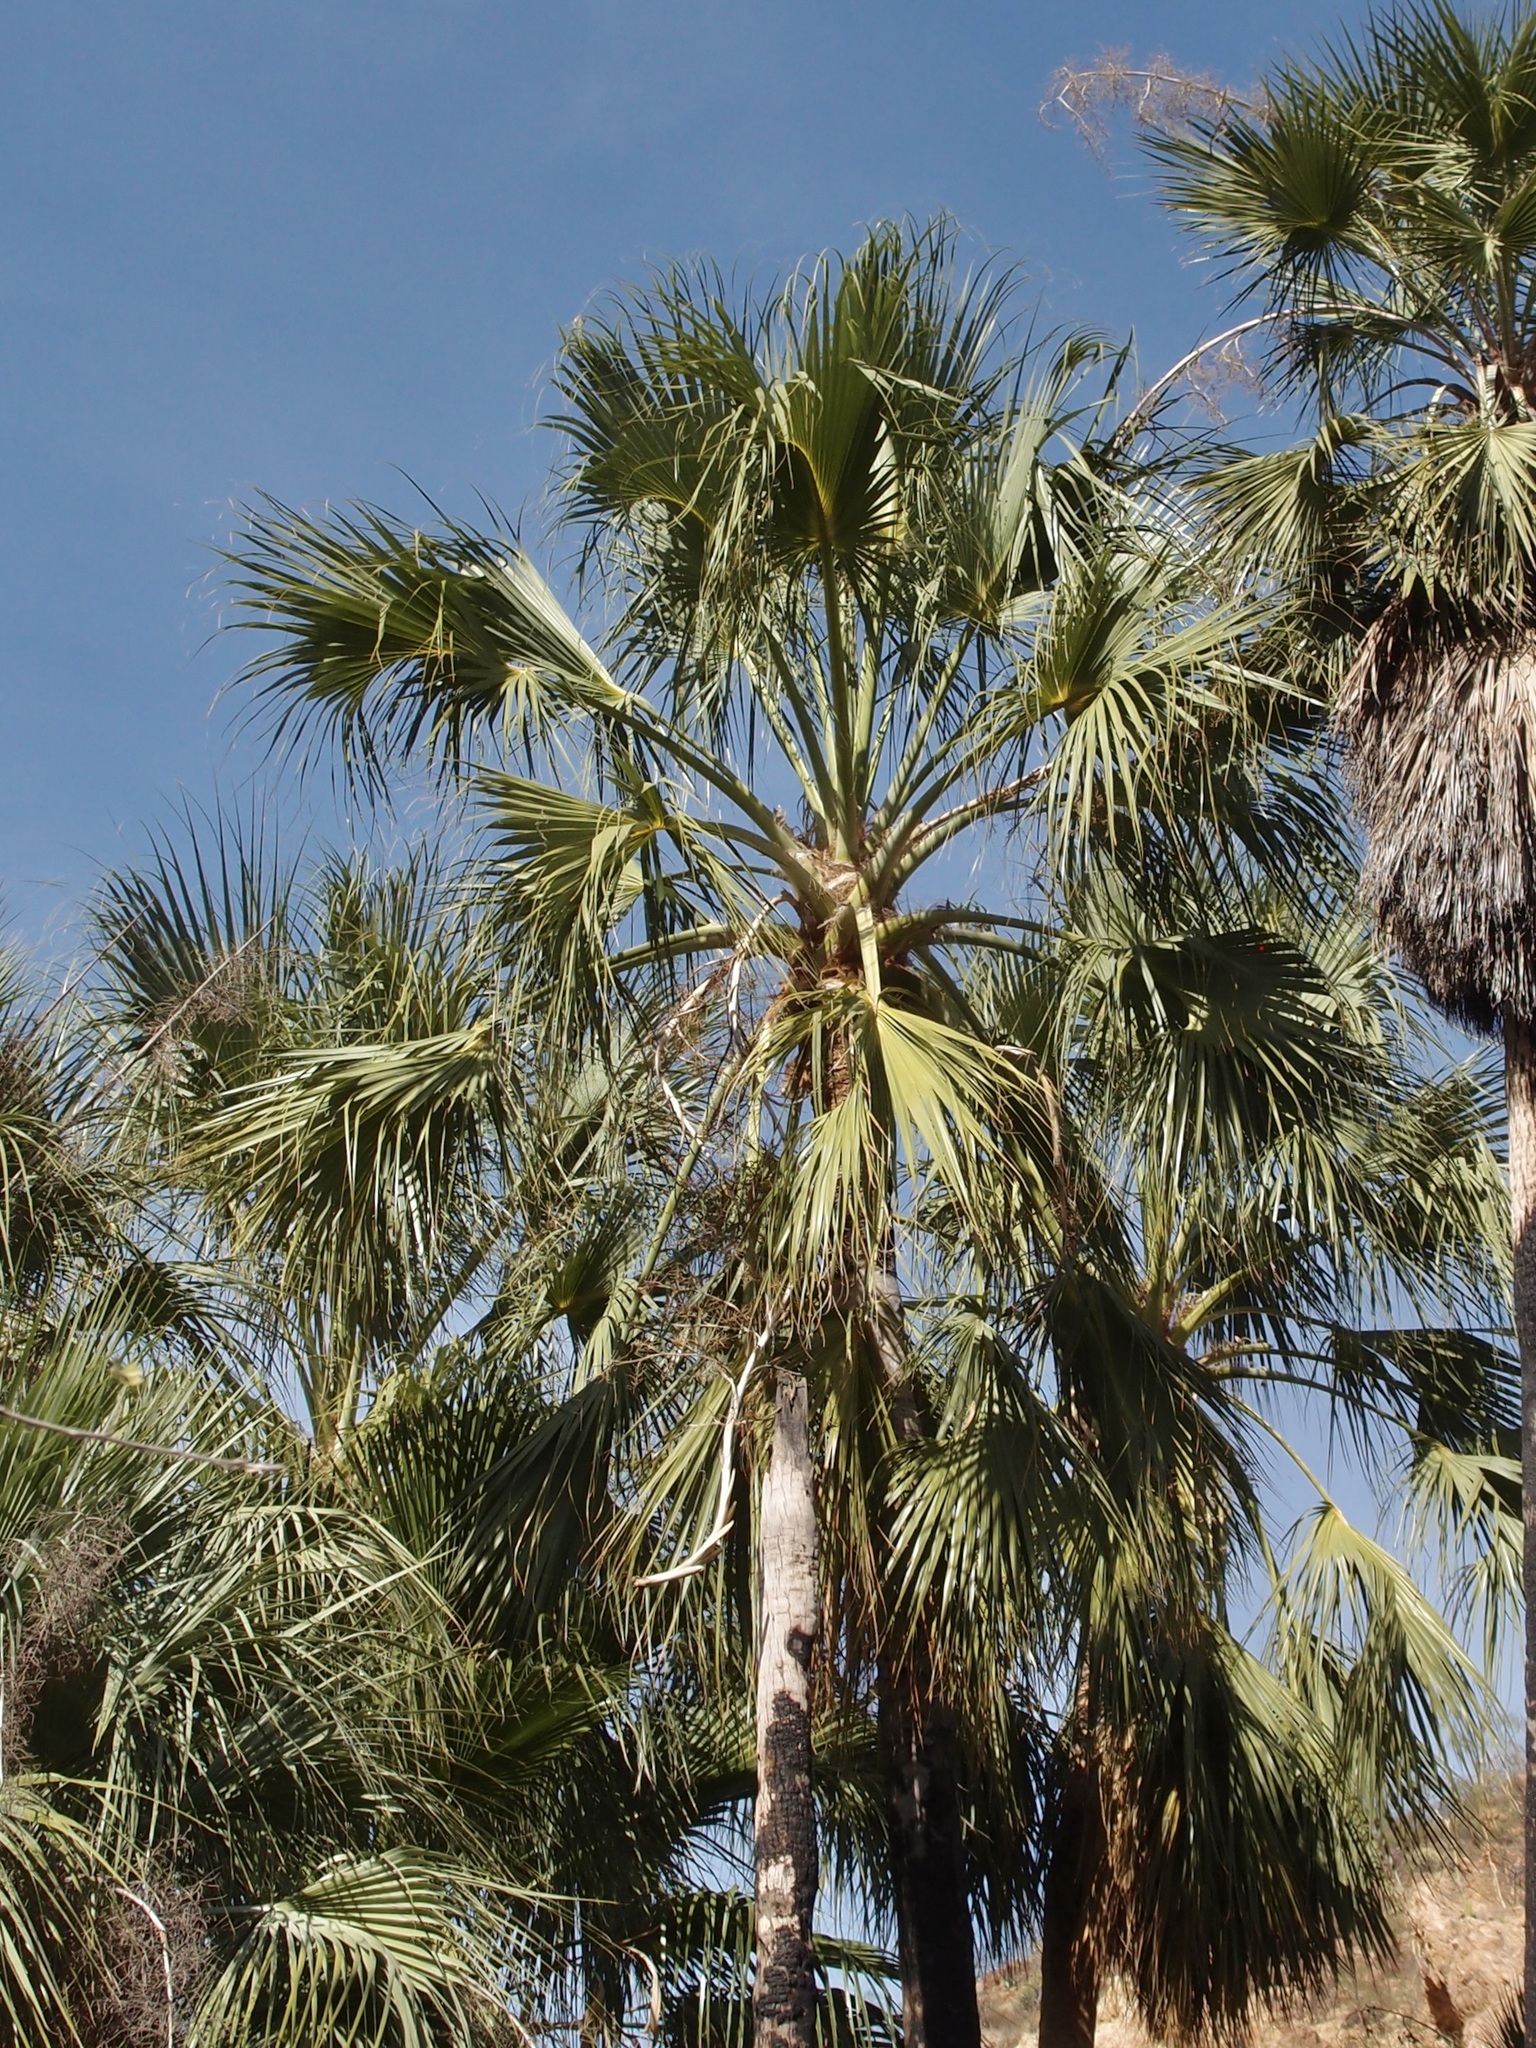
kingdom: Plantae
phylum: Tracheophyta
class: Liliopsida
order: Arecales
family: Arecaceae
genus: Sabal
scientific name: Sabal uresana
